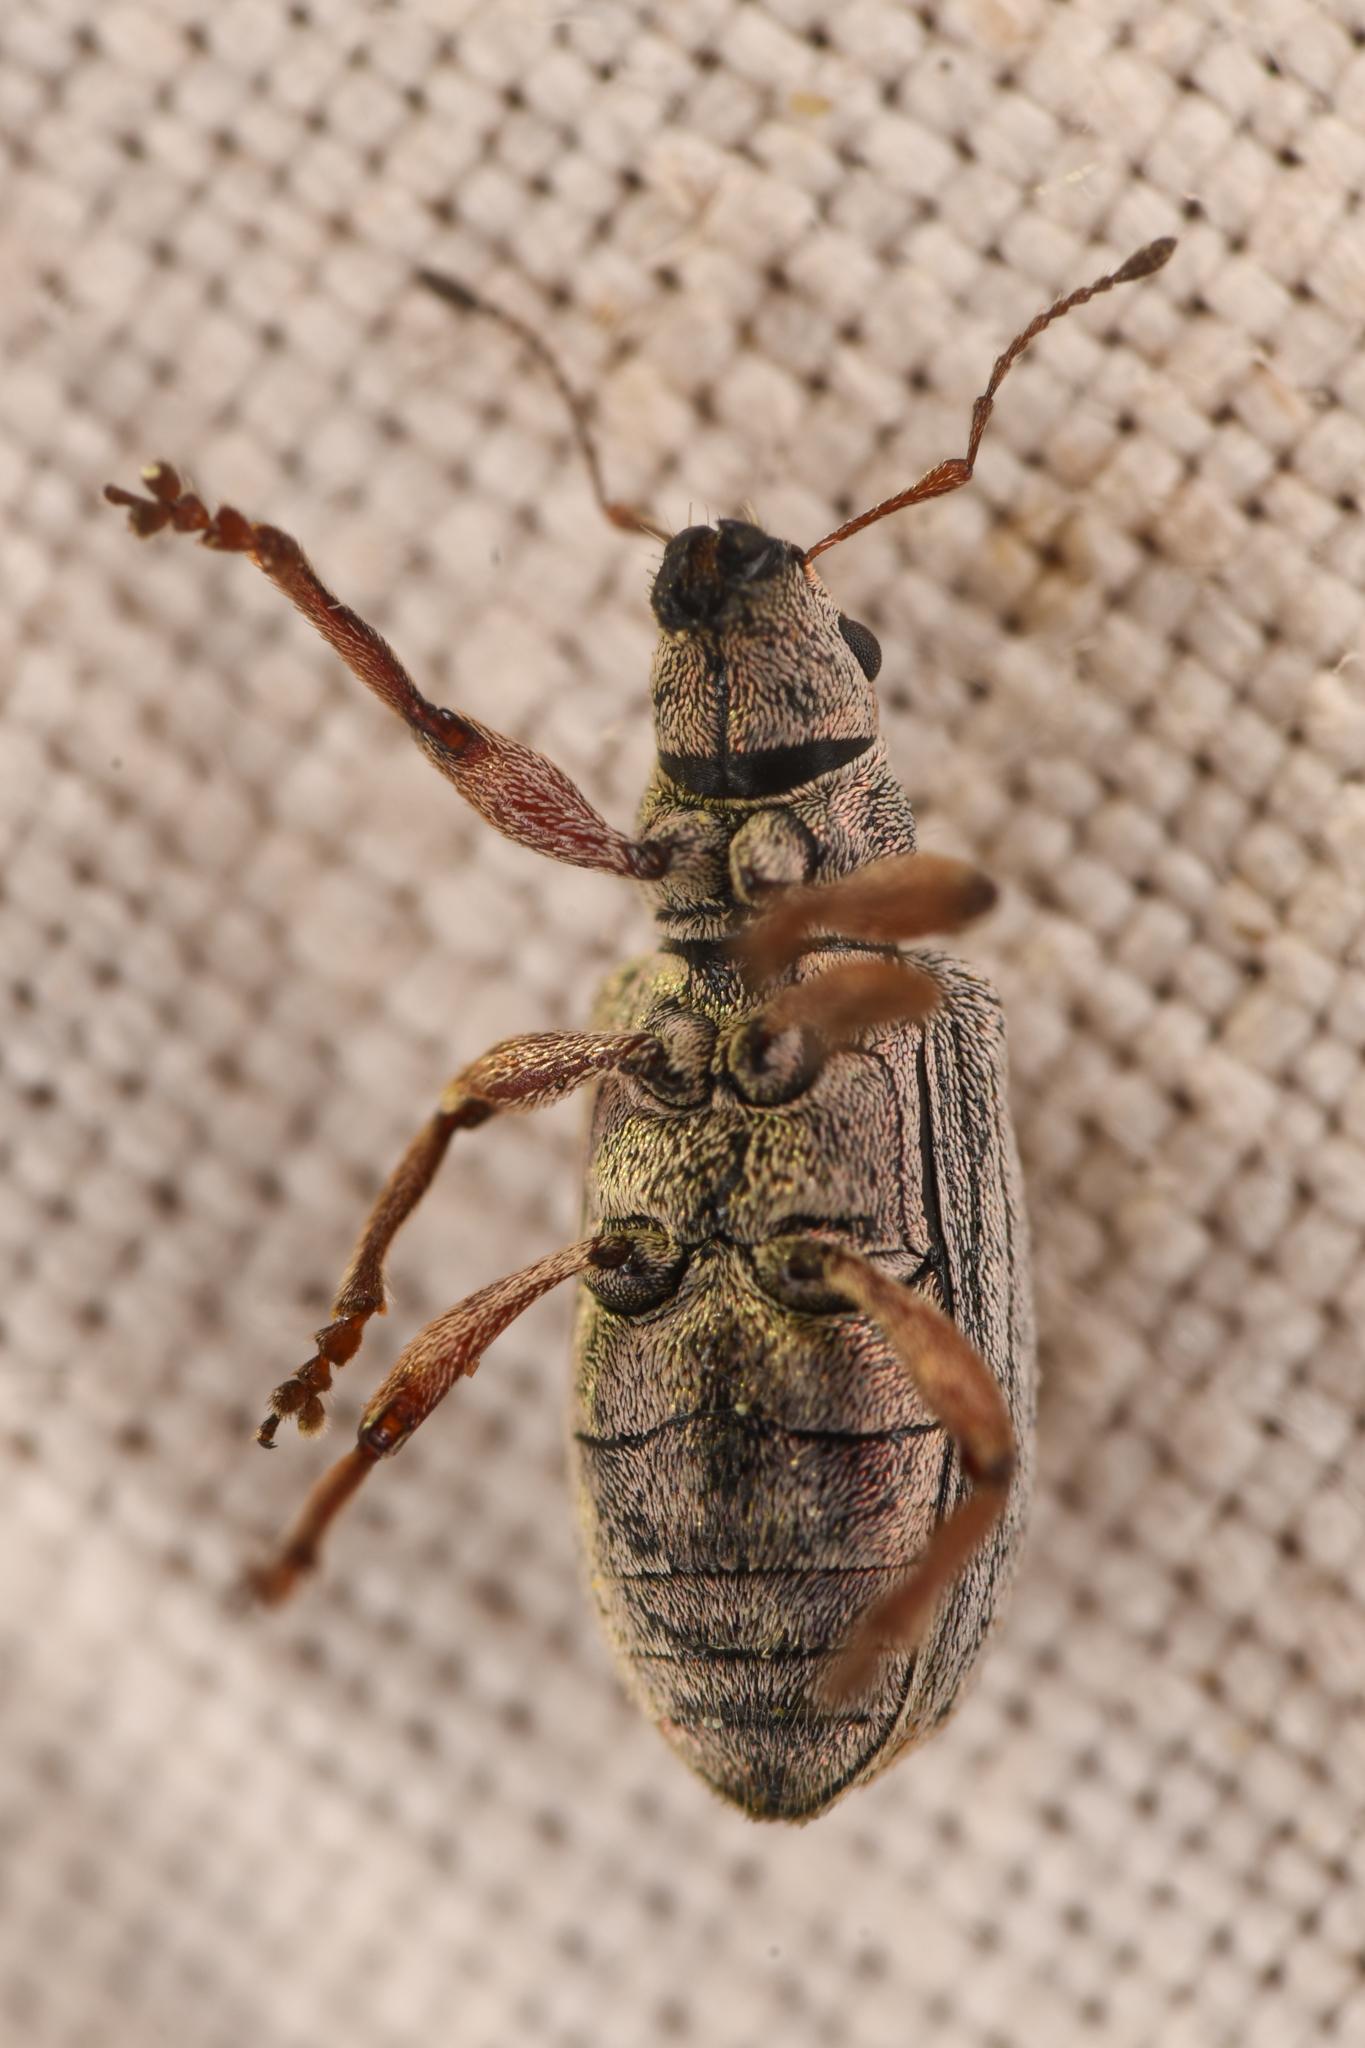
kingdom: Animalia
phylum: Arthropoda
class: Insecta
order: Coleoptera
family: Curculionidae
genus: Pachyrhinus
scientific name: Pachyrhinus elegans
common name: Weevil
